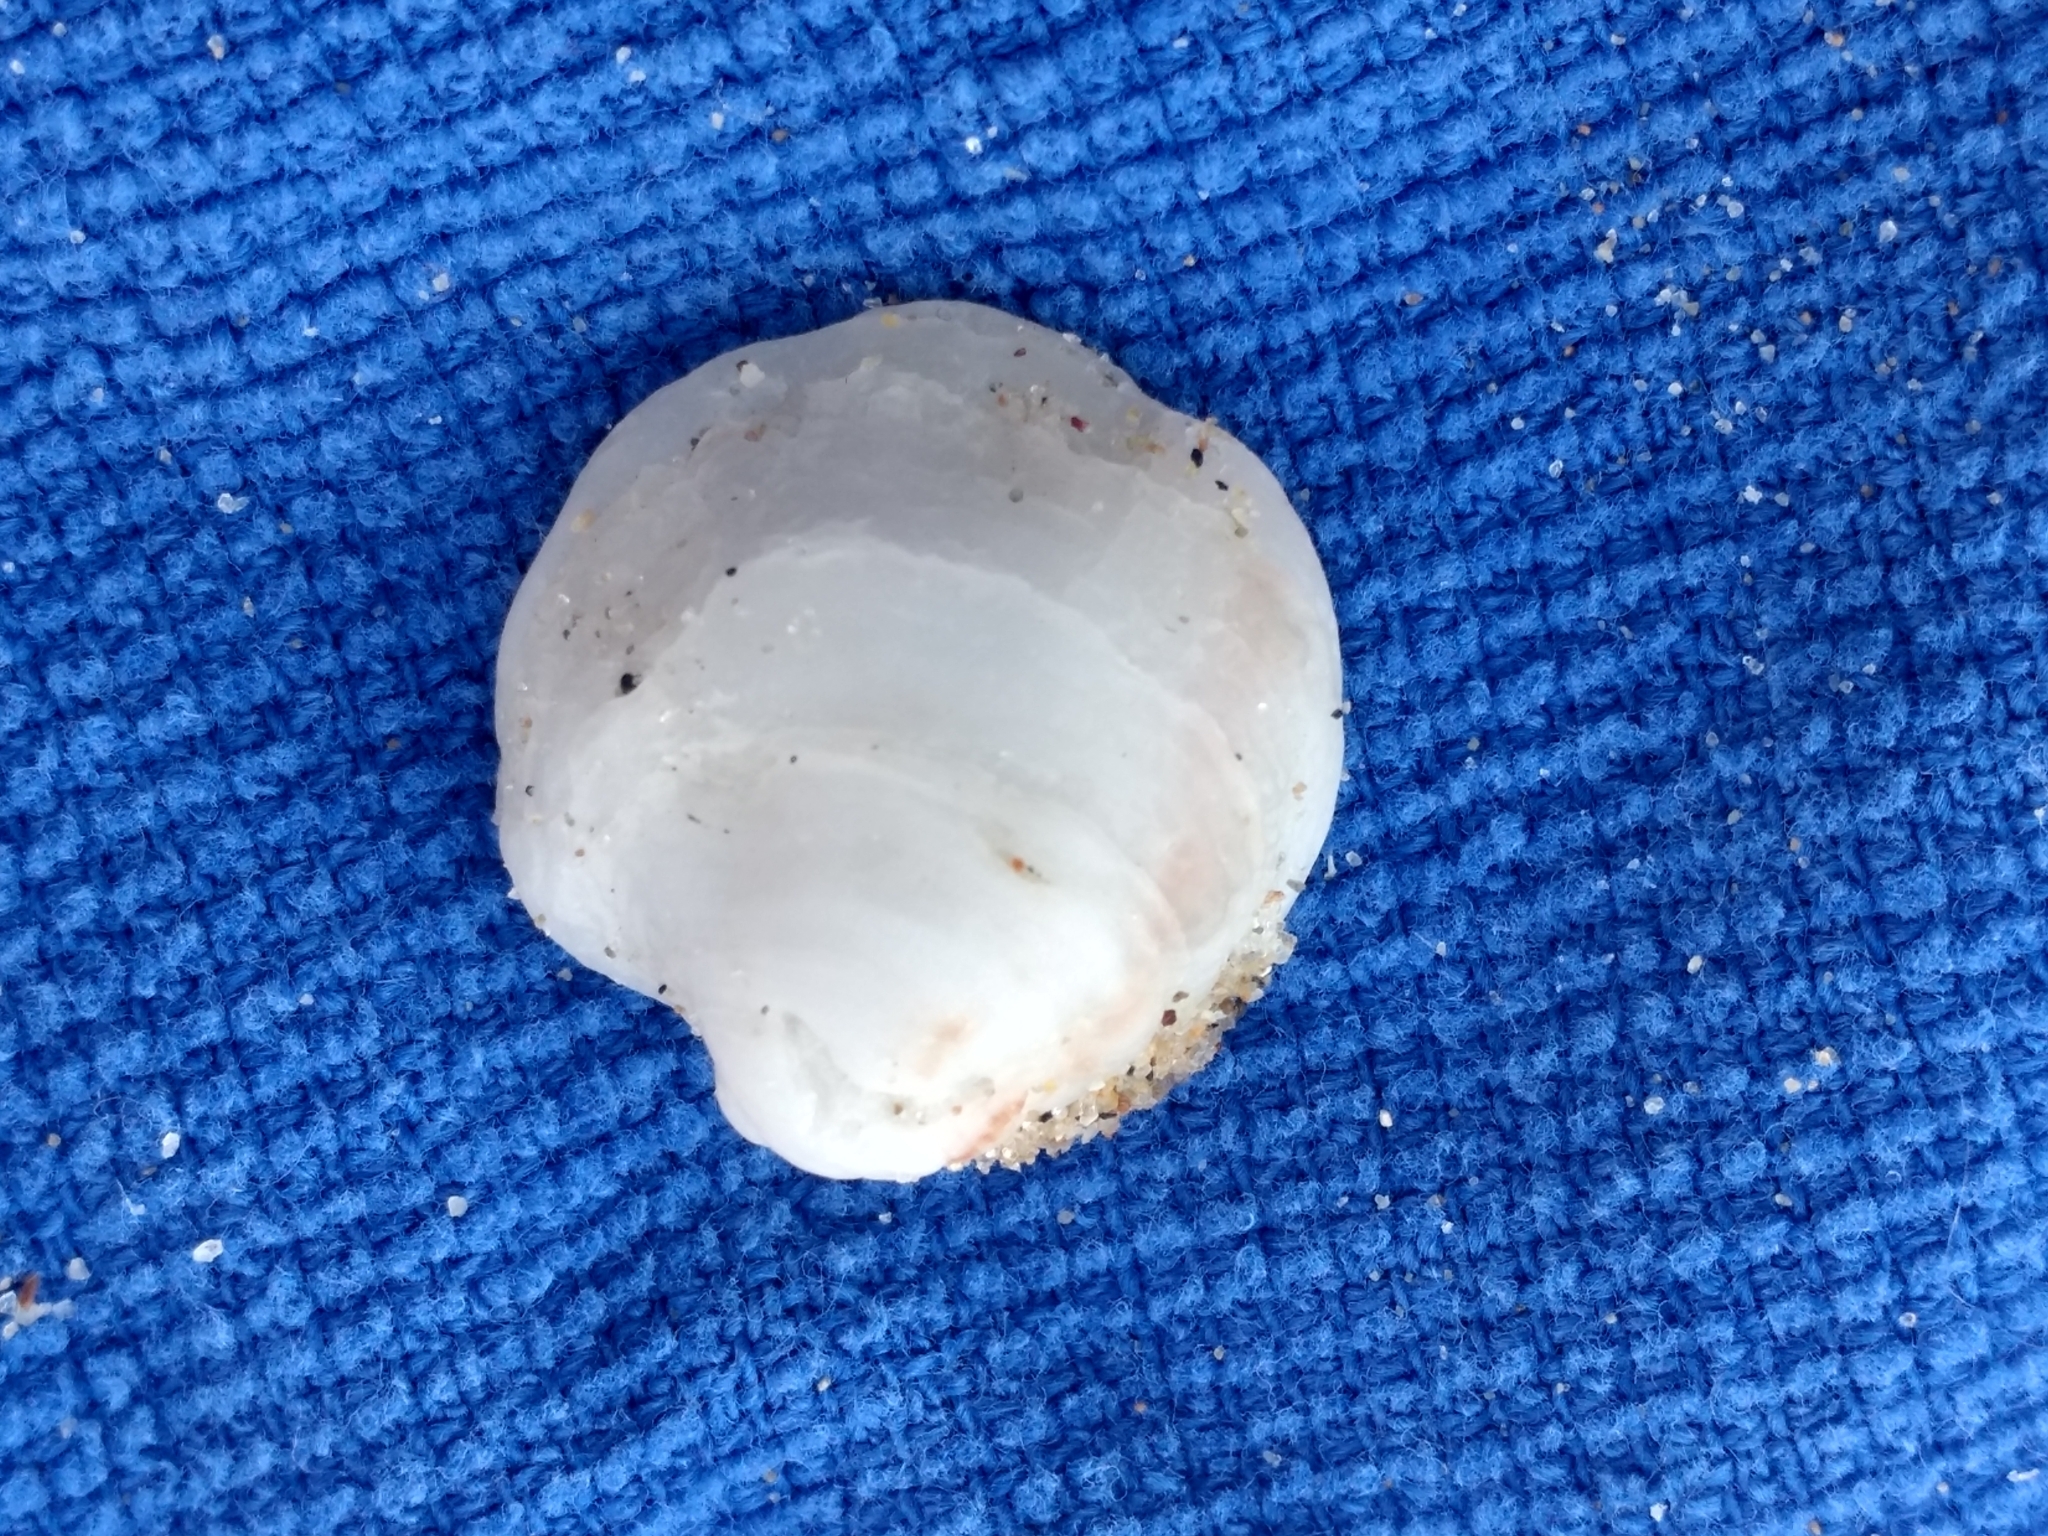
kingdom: Animalia
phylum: Mollusca
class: Bivalvia
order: Venerida
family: Chamidae
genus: Chama
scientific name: Chama arcana
